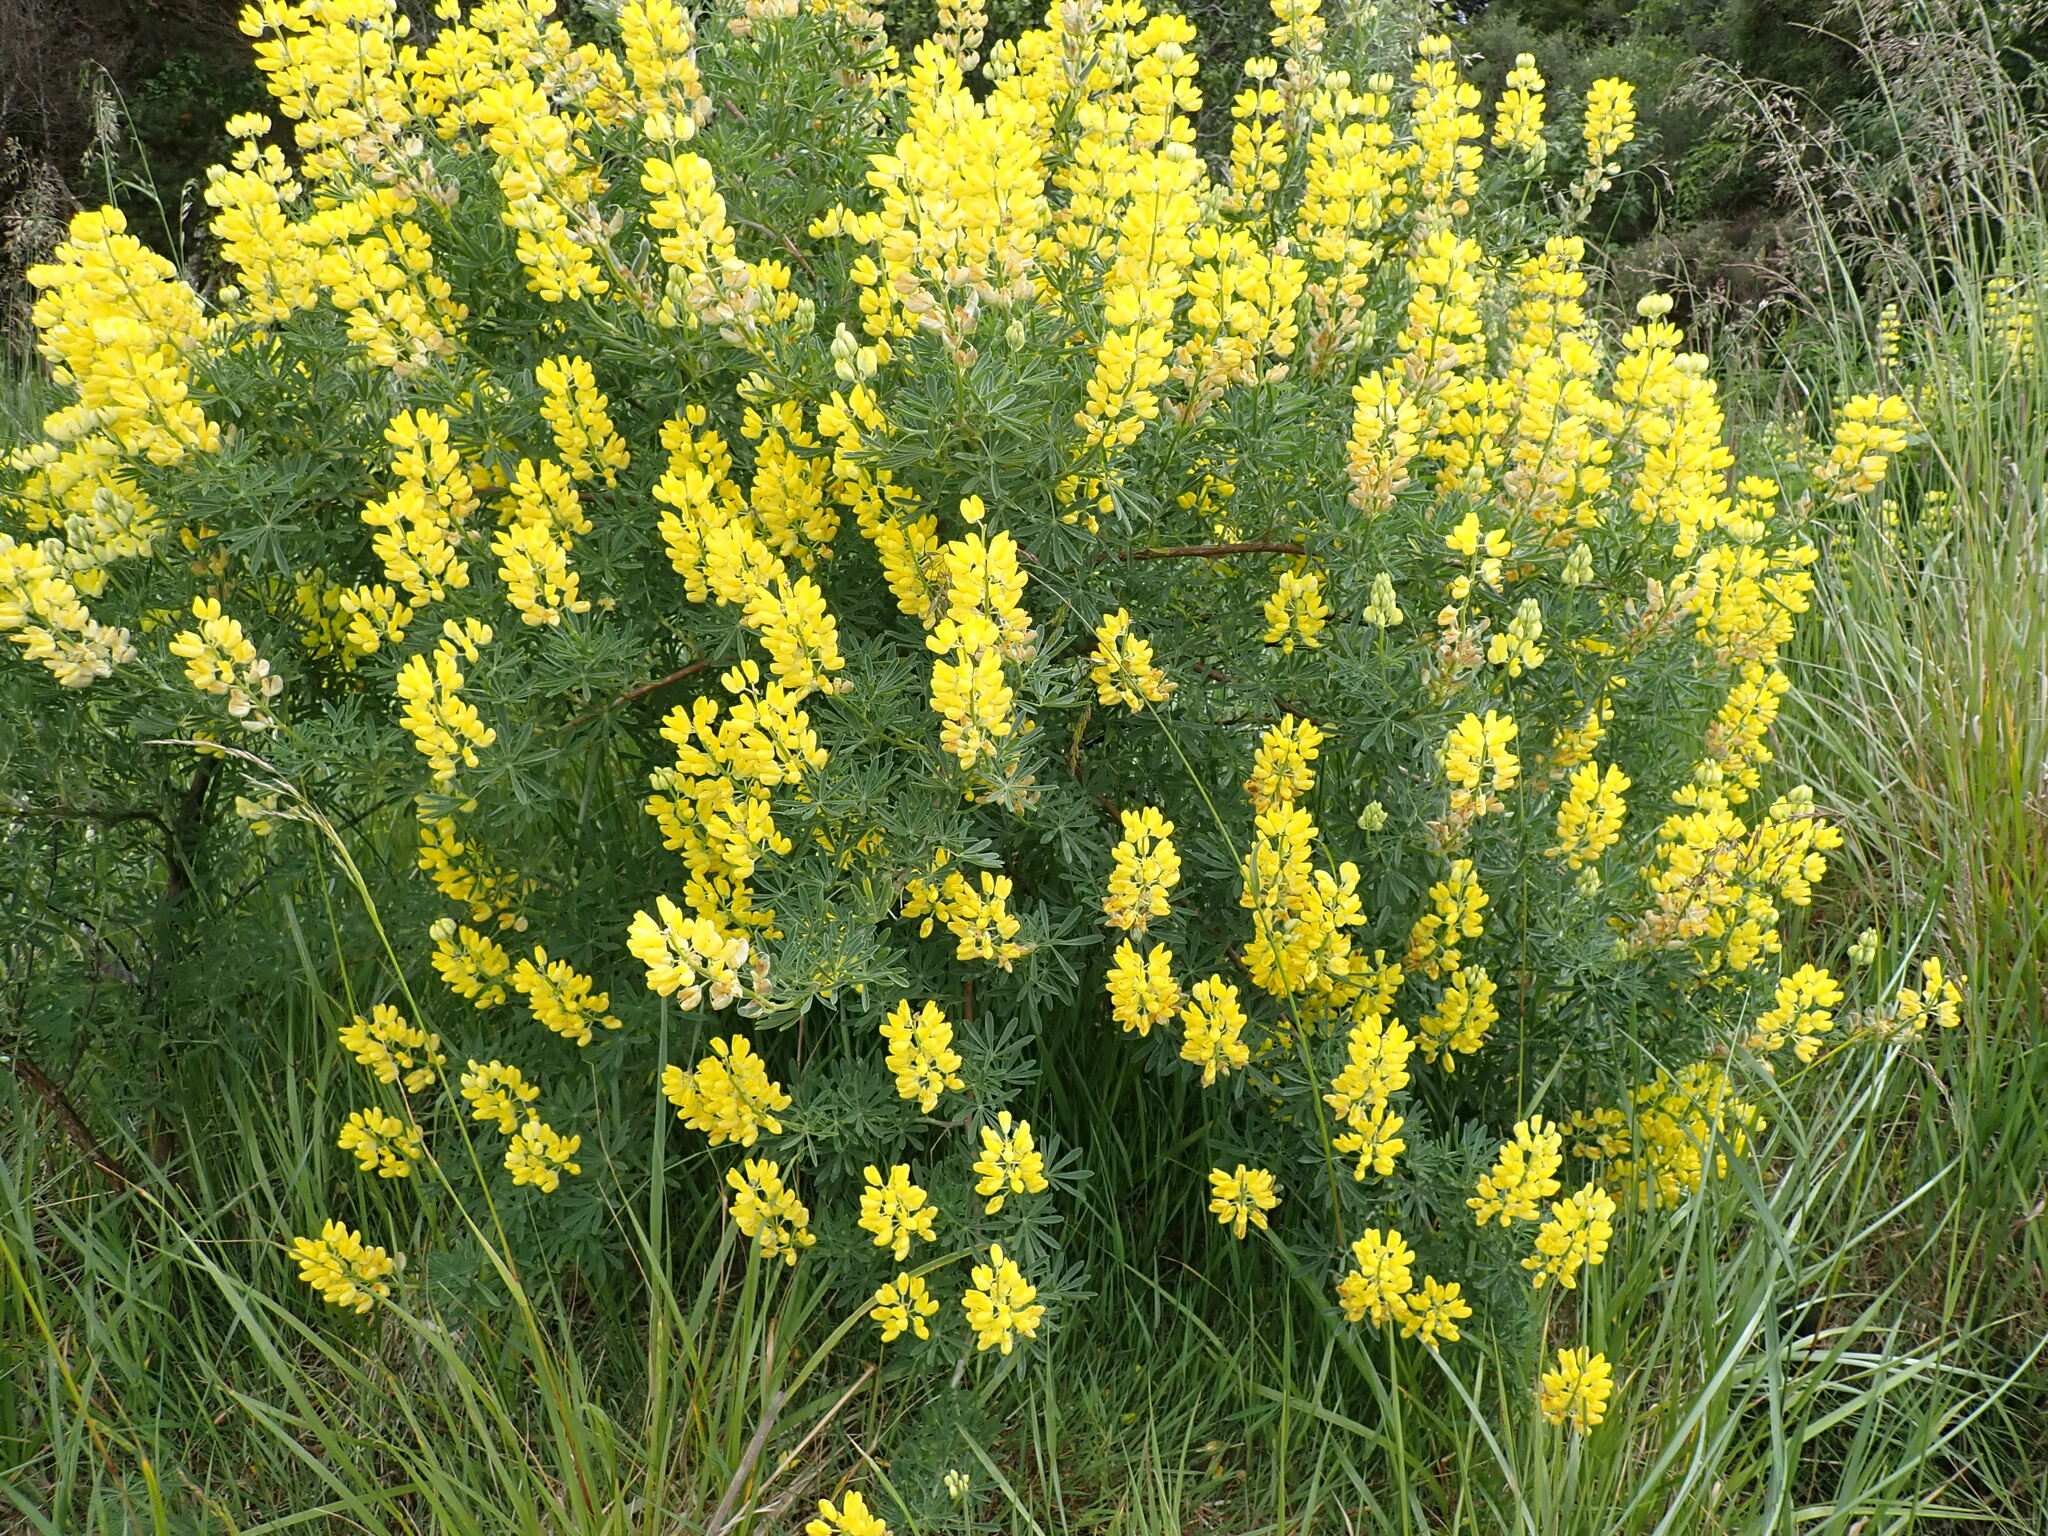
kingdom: Plantae
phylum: Tracheophyta
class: Magnoliopsida
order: Fabales
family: Fabaceae
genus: Lupinus
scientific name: Lupinus arboreus
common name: Yellow bush lupine
